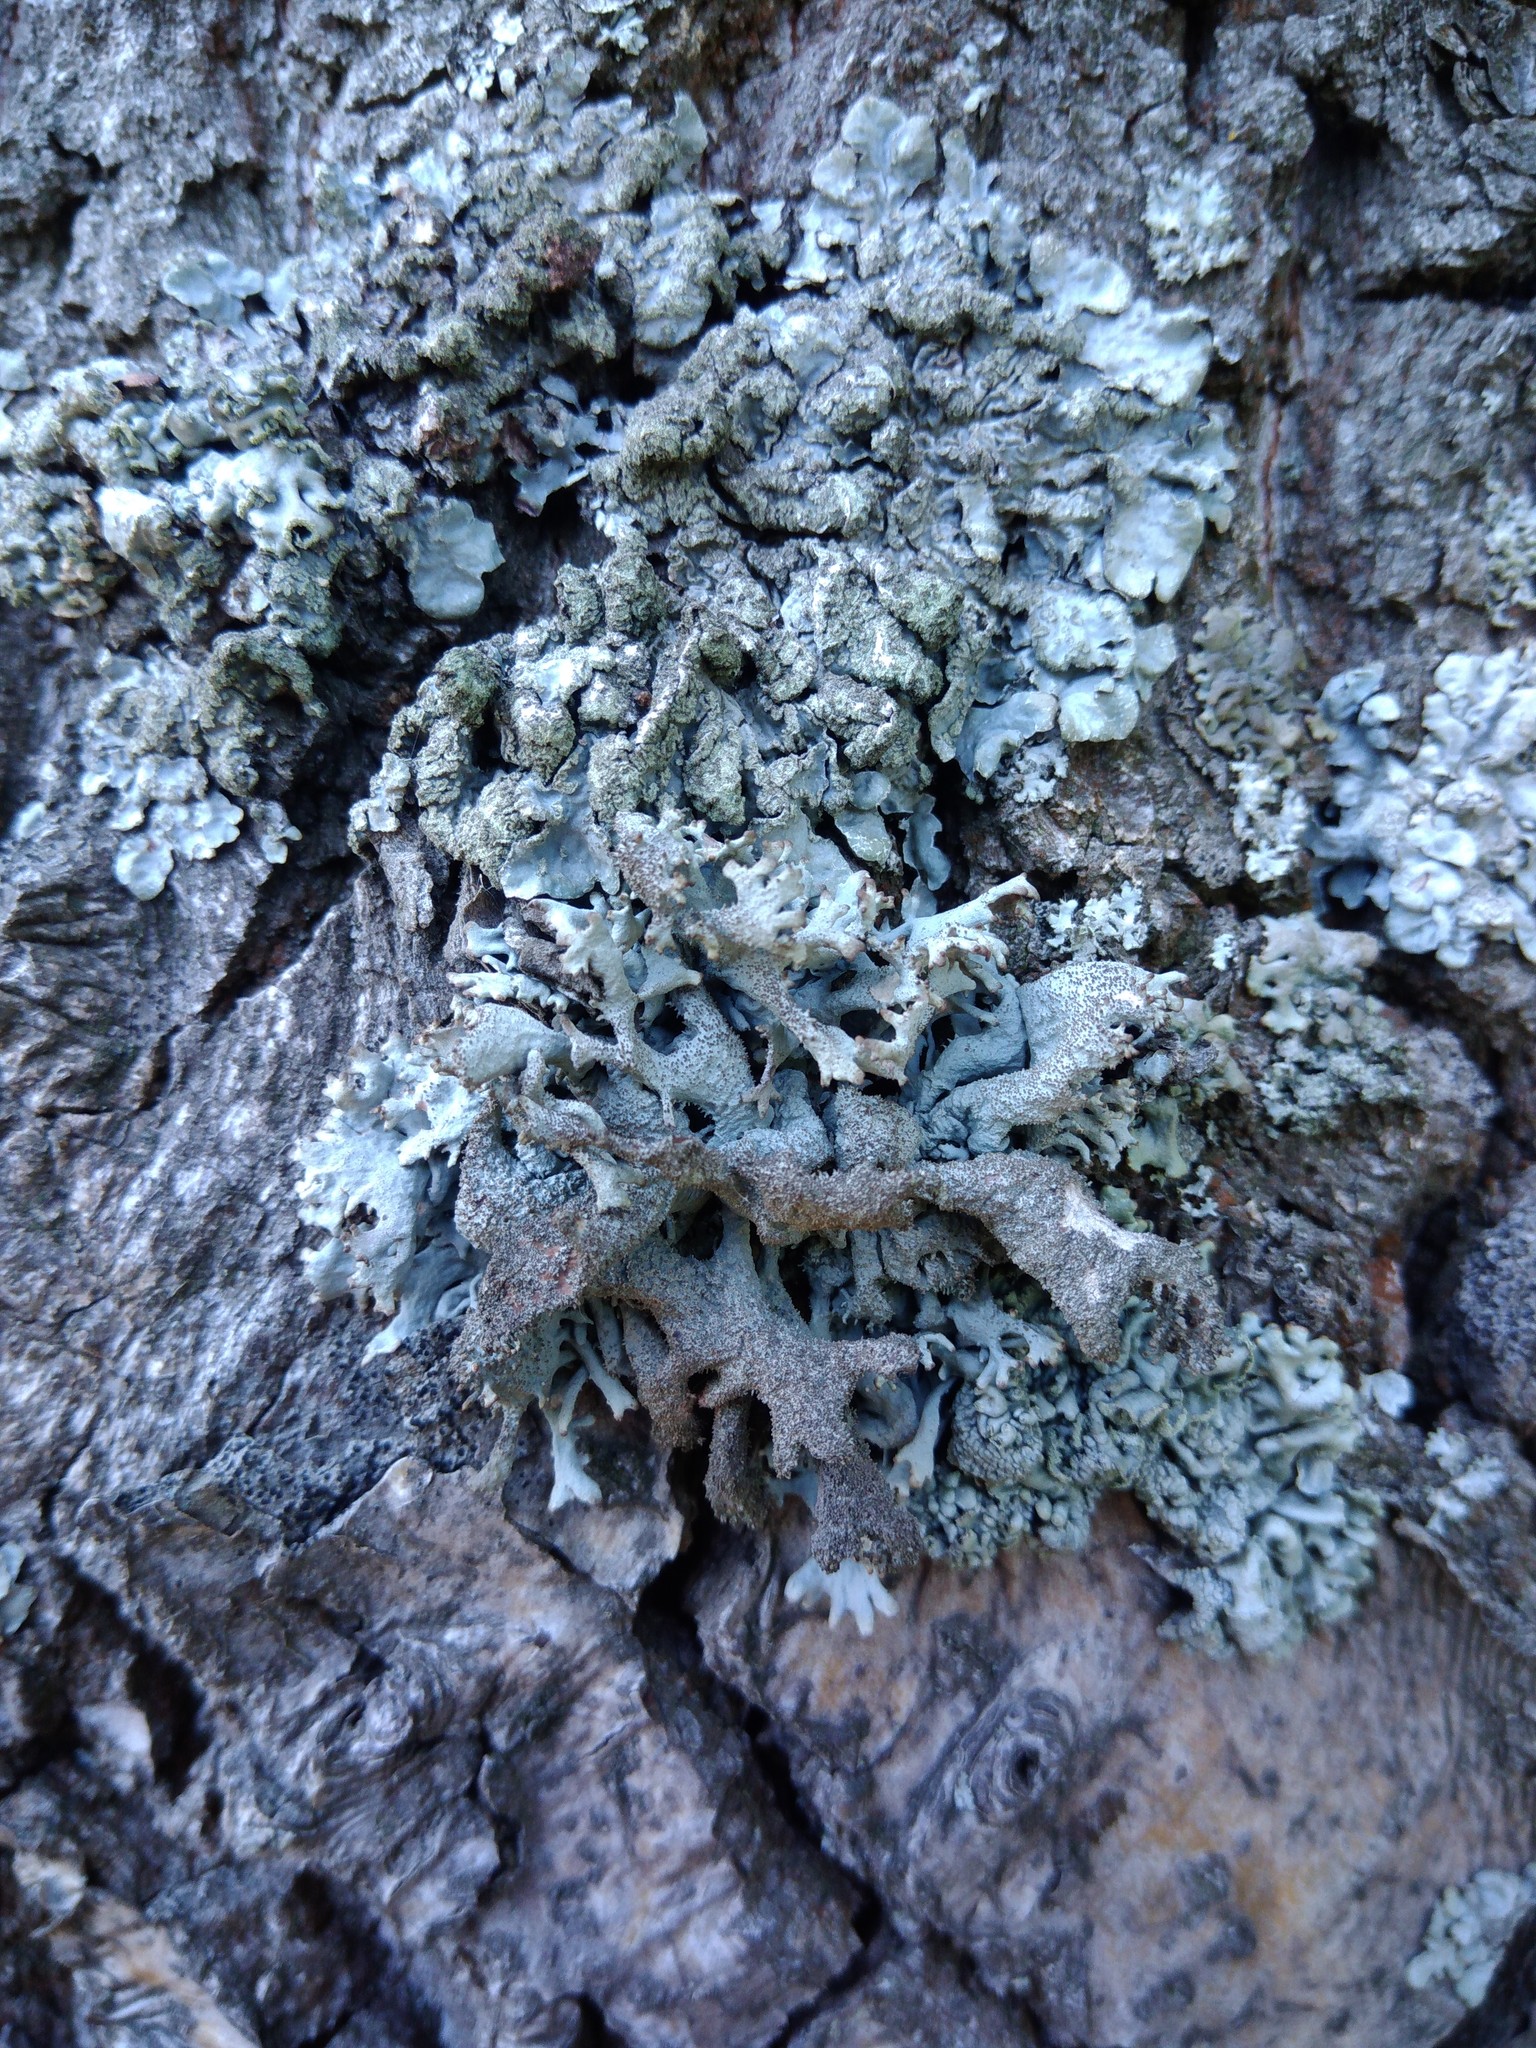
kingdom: Fungi
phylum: Ascomycota
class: Lecanoromycetes
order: Lecanorales
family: Parmeliaceae
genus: Pseudevernia
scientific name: Pseudevernia furfuracea
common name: Tree moss
